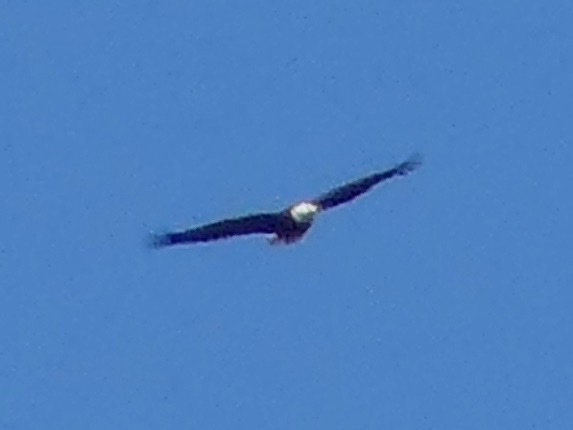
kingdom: Animalia
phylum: Chordata
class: Aves
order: Accipitriformes
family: Accipitridae
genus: Haliaeetus
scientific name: Haliaeetus leucocephalus
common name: Bald eagle
